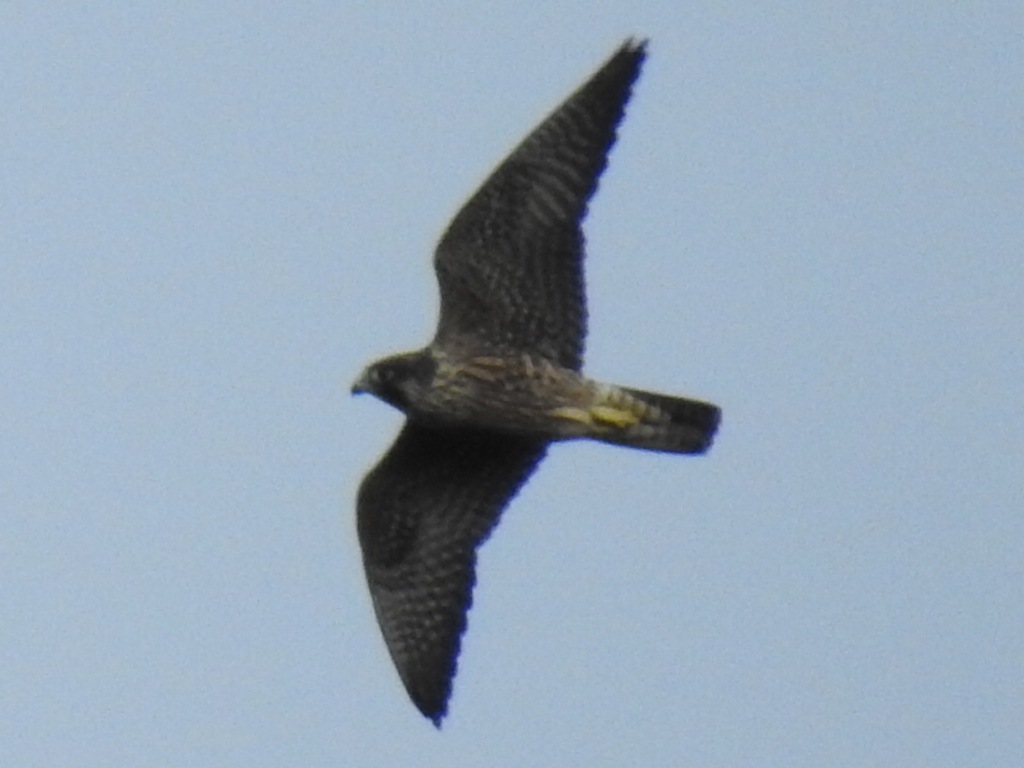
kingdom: Animalia
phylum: Chordata
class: Aves
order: Falconiformes
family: Falconidae
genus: Falco
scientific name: Falco peregrinus
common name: Peregrine falcon
